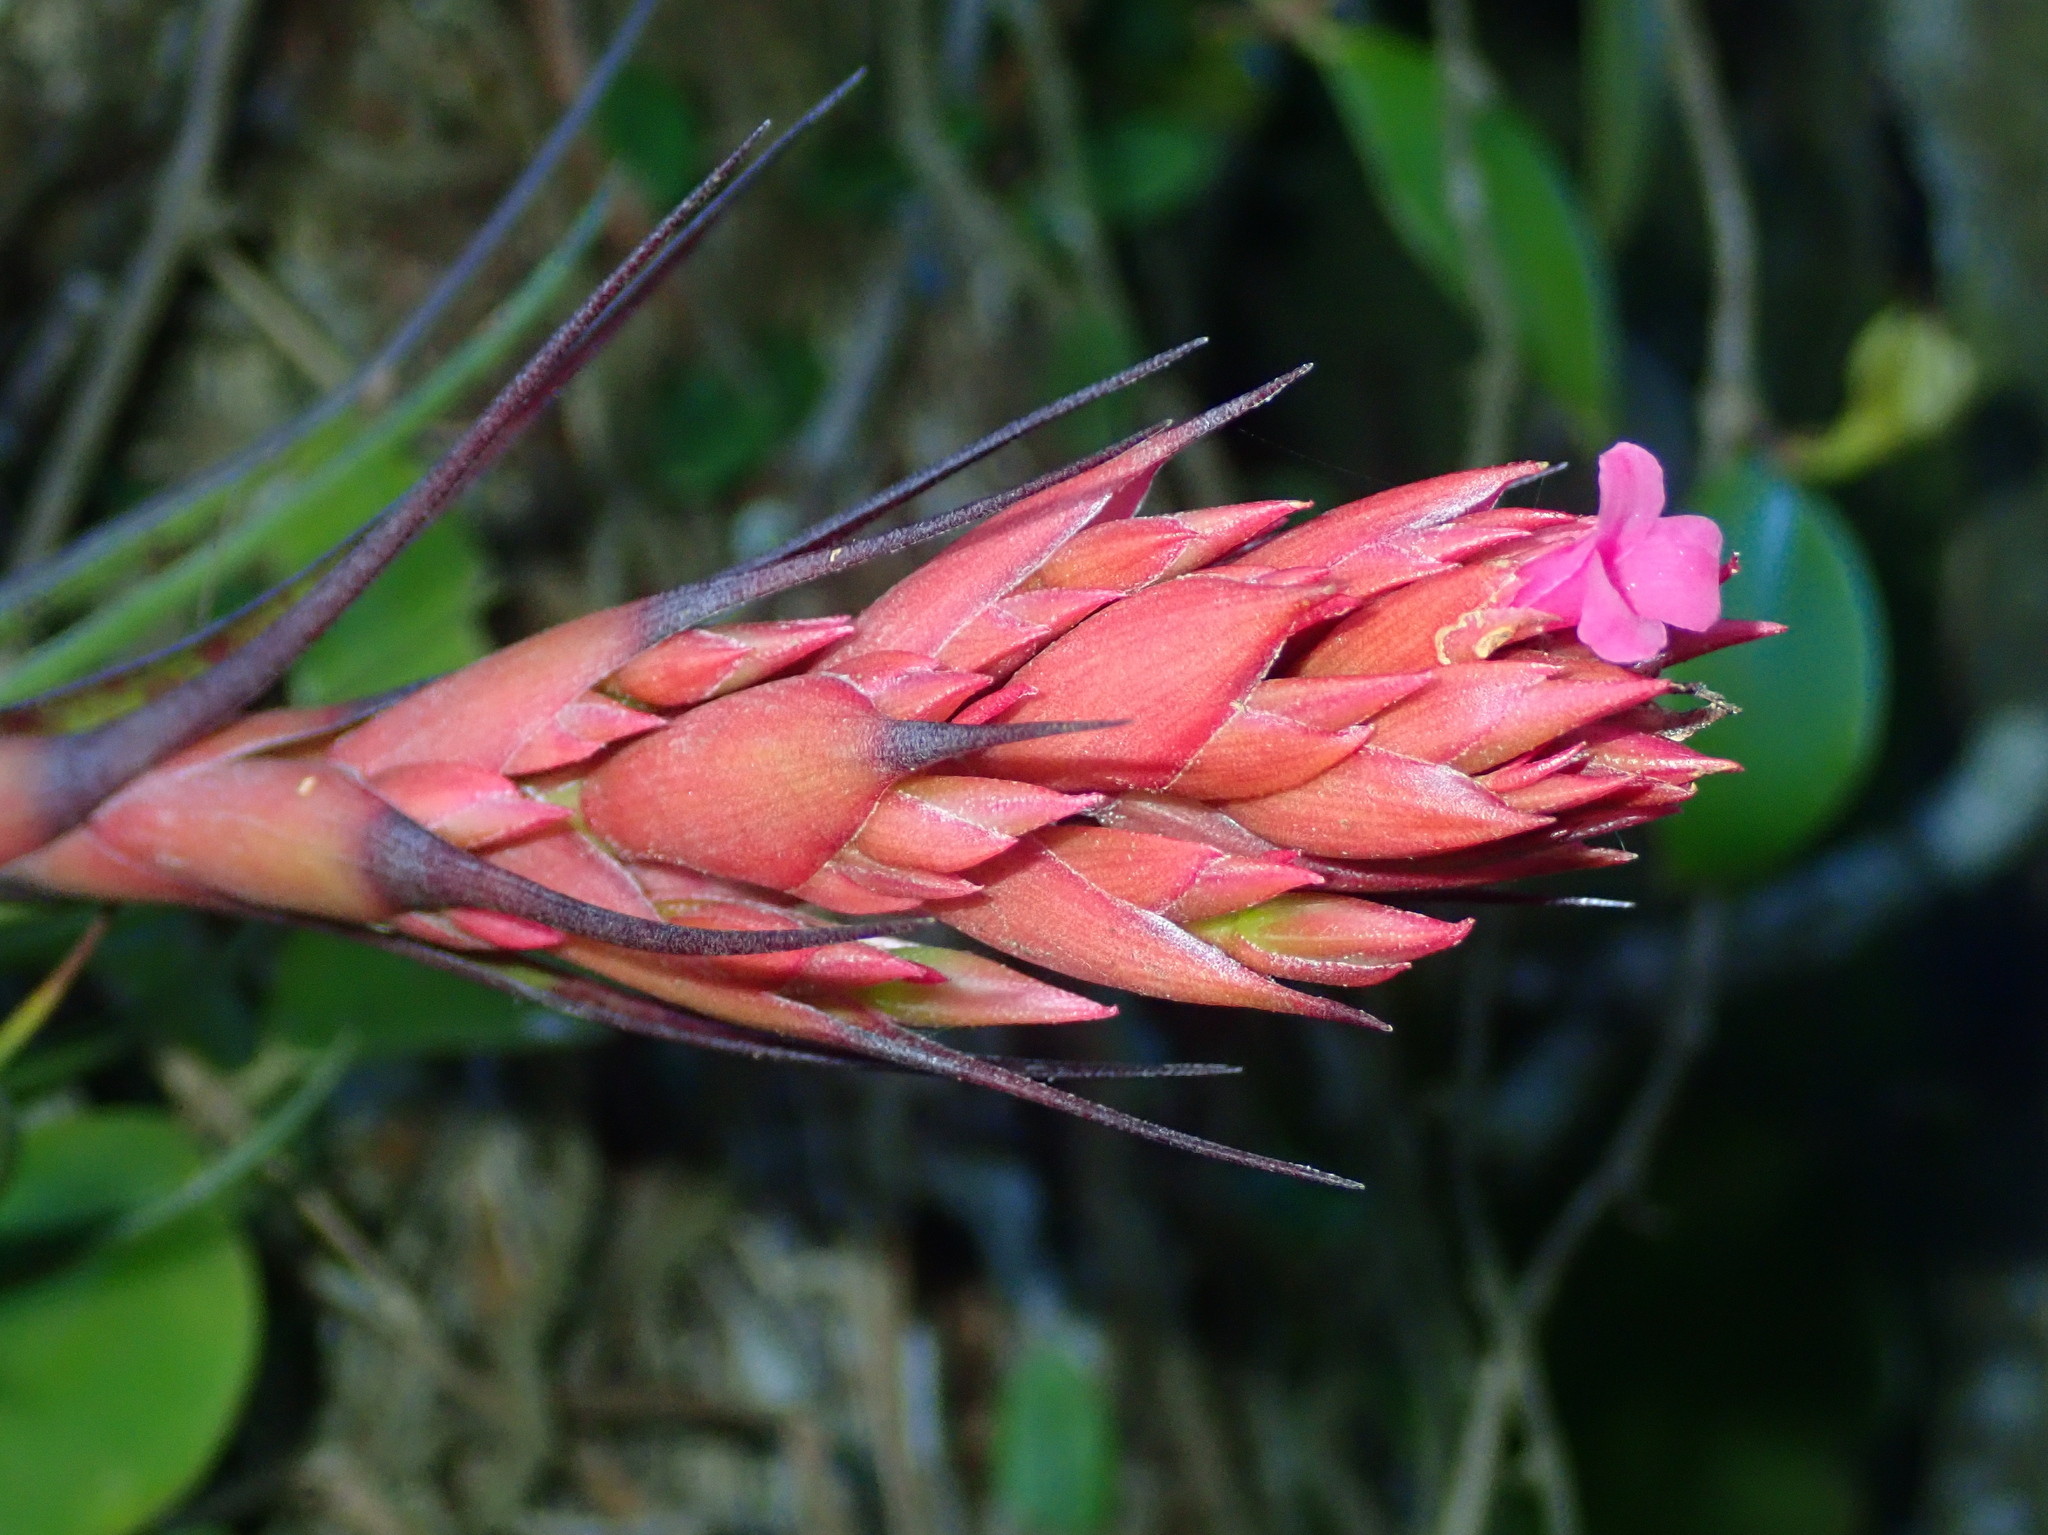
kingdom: Plantae
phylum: Tracheophyta
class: Liliopsida
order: Poales
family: Bromeliaceae
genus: Tillandsia
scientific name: Tillandsia geminiflora
